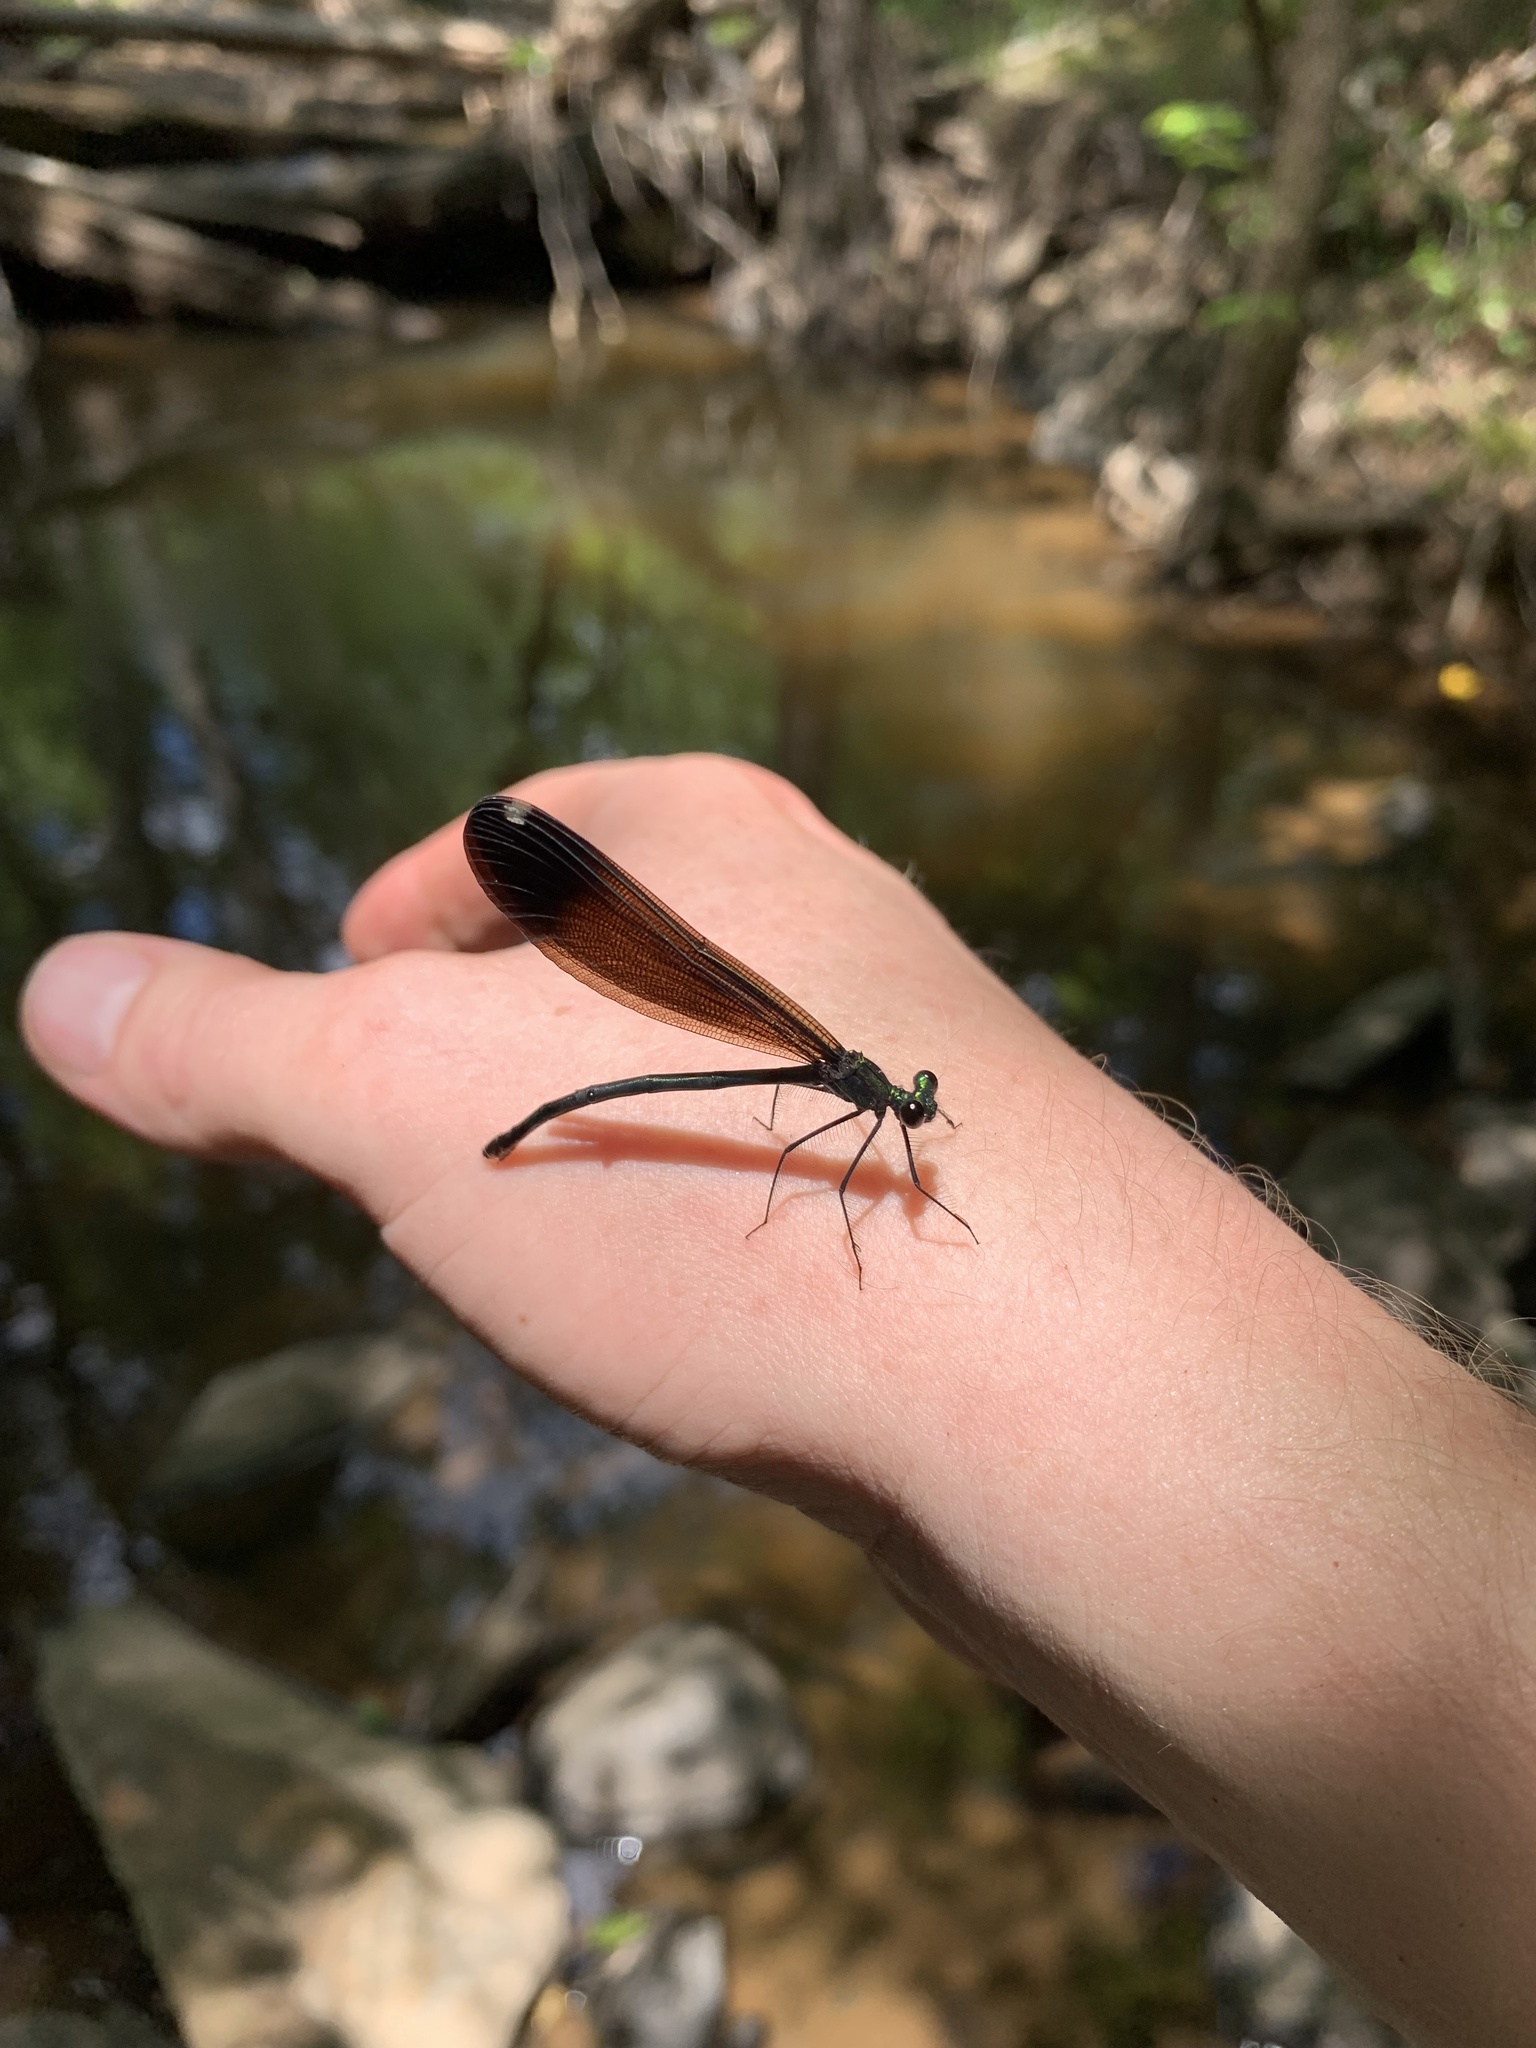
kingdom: Animalia
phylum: Arthropoda
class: Insecta
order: Odonata
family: Calopterygidae
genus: Calopteryx
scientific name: Calopteryx maculata
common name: Ebony jewelwing
